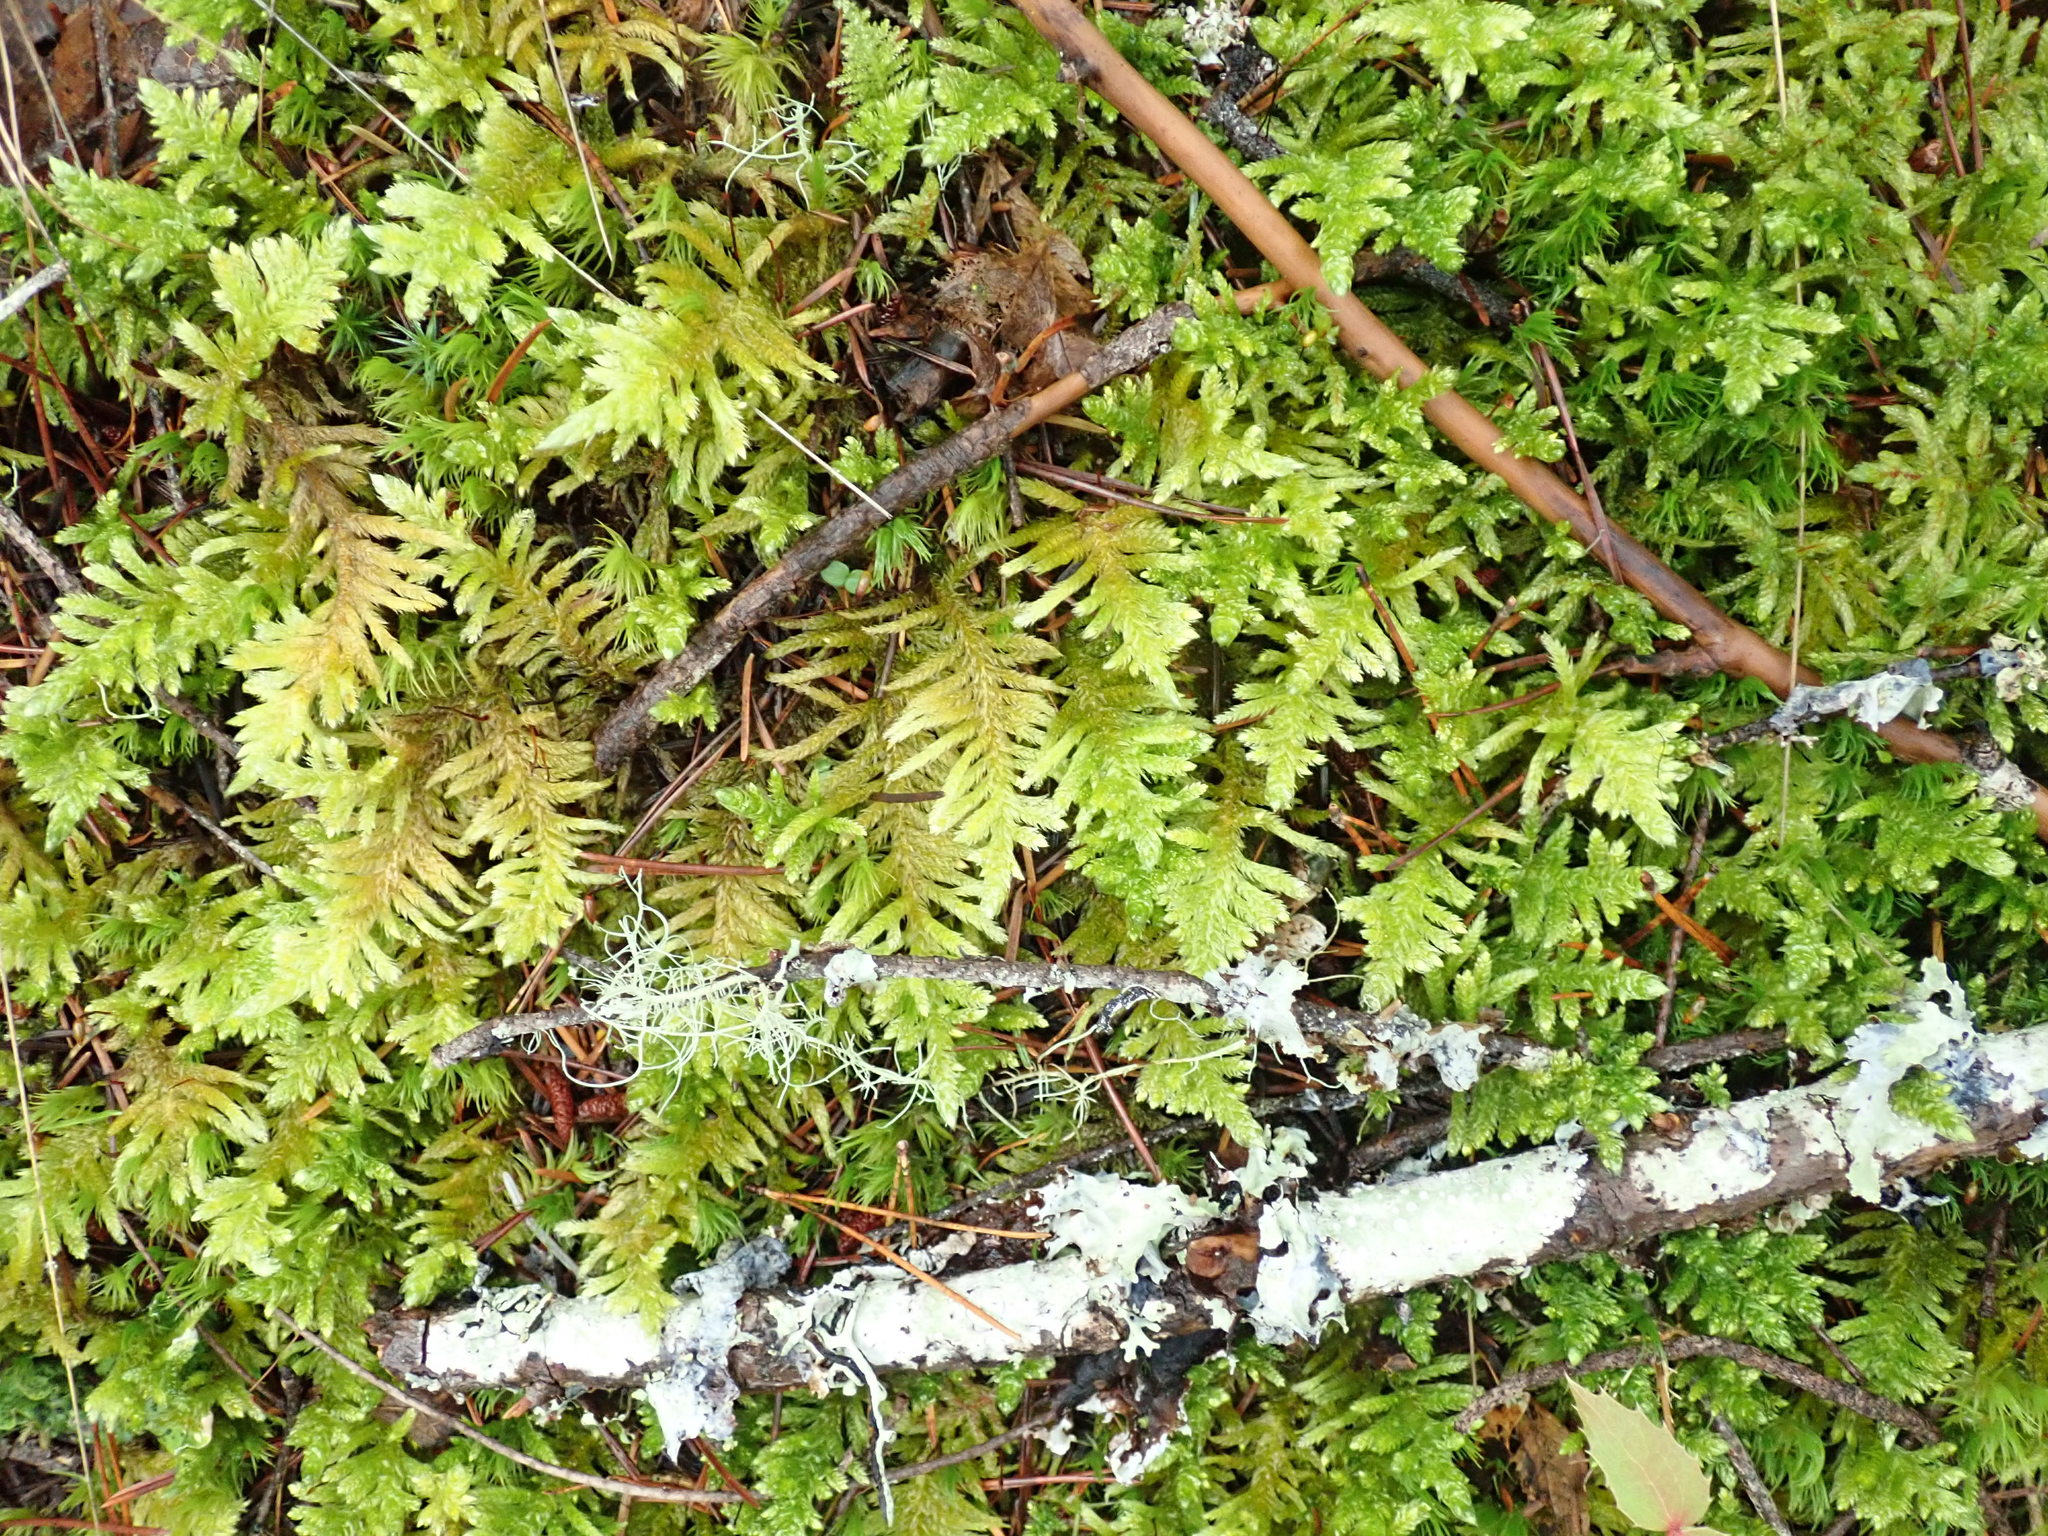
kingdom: Plantae
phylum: Bryophyta
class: Bryopsida
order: Hypnales
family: Brachytheciaceae
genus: Homalothecium
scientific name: Homalothecium megaptilum
